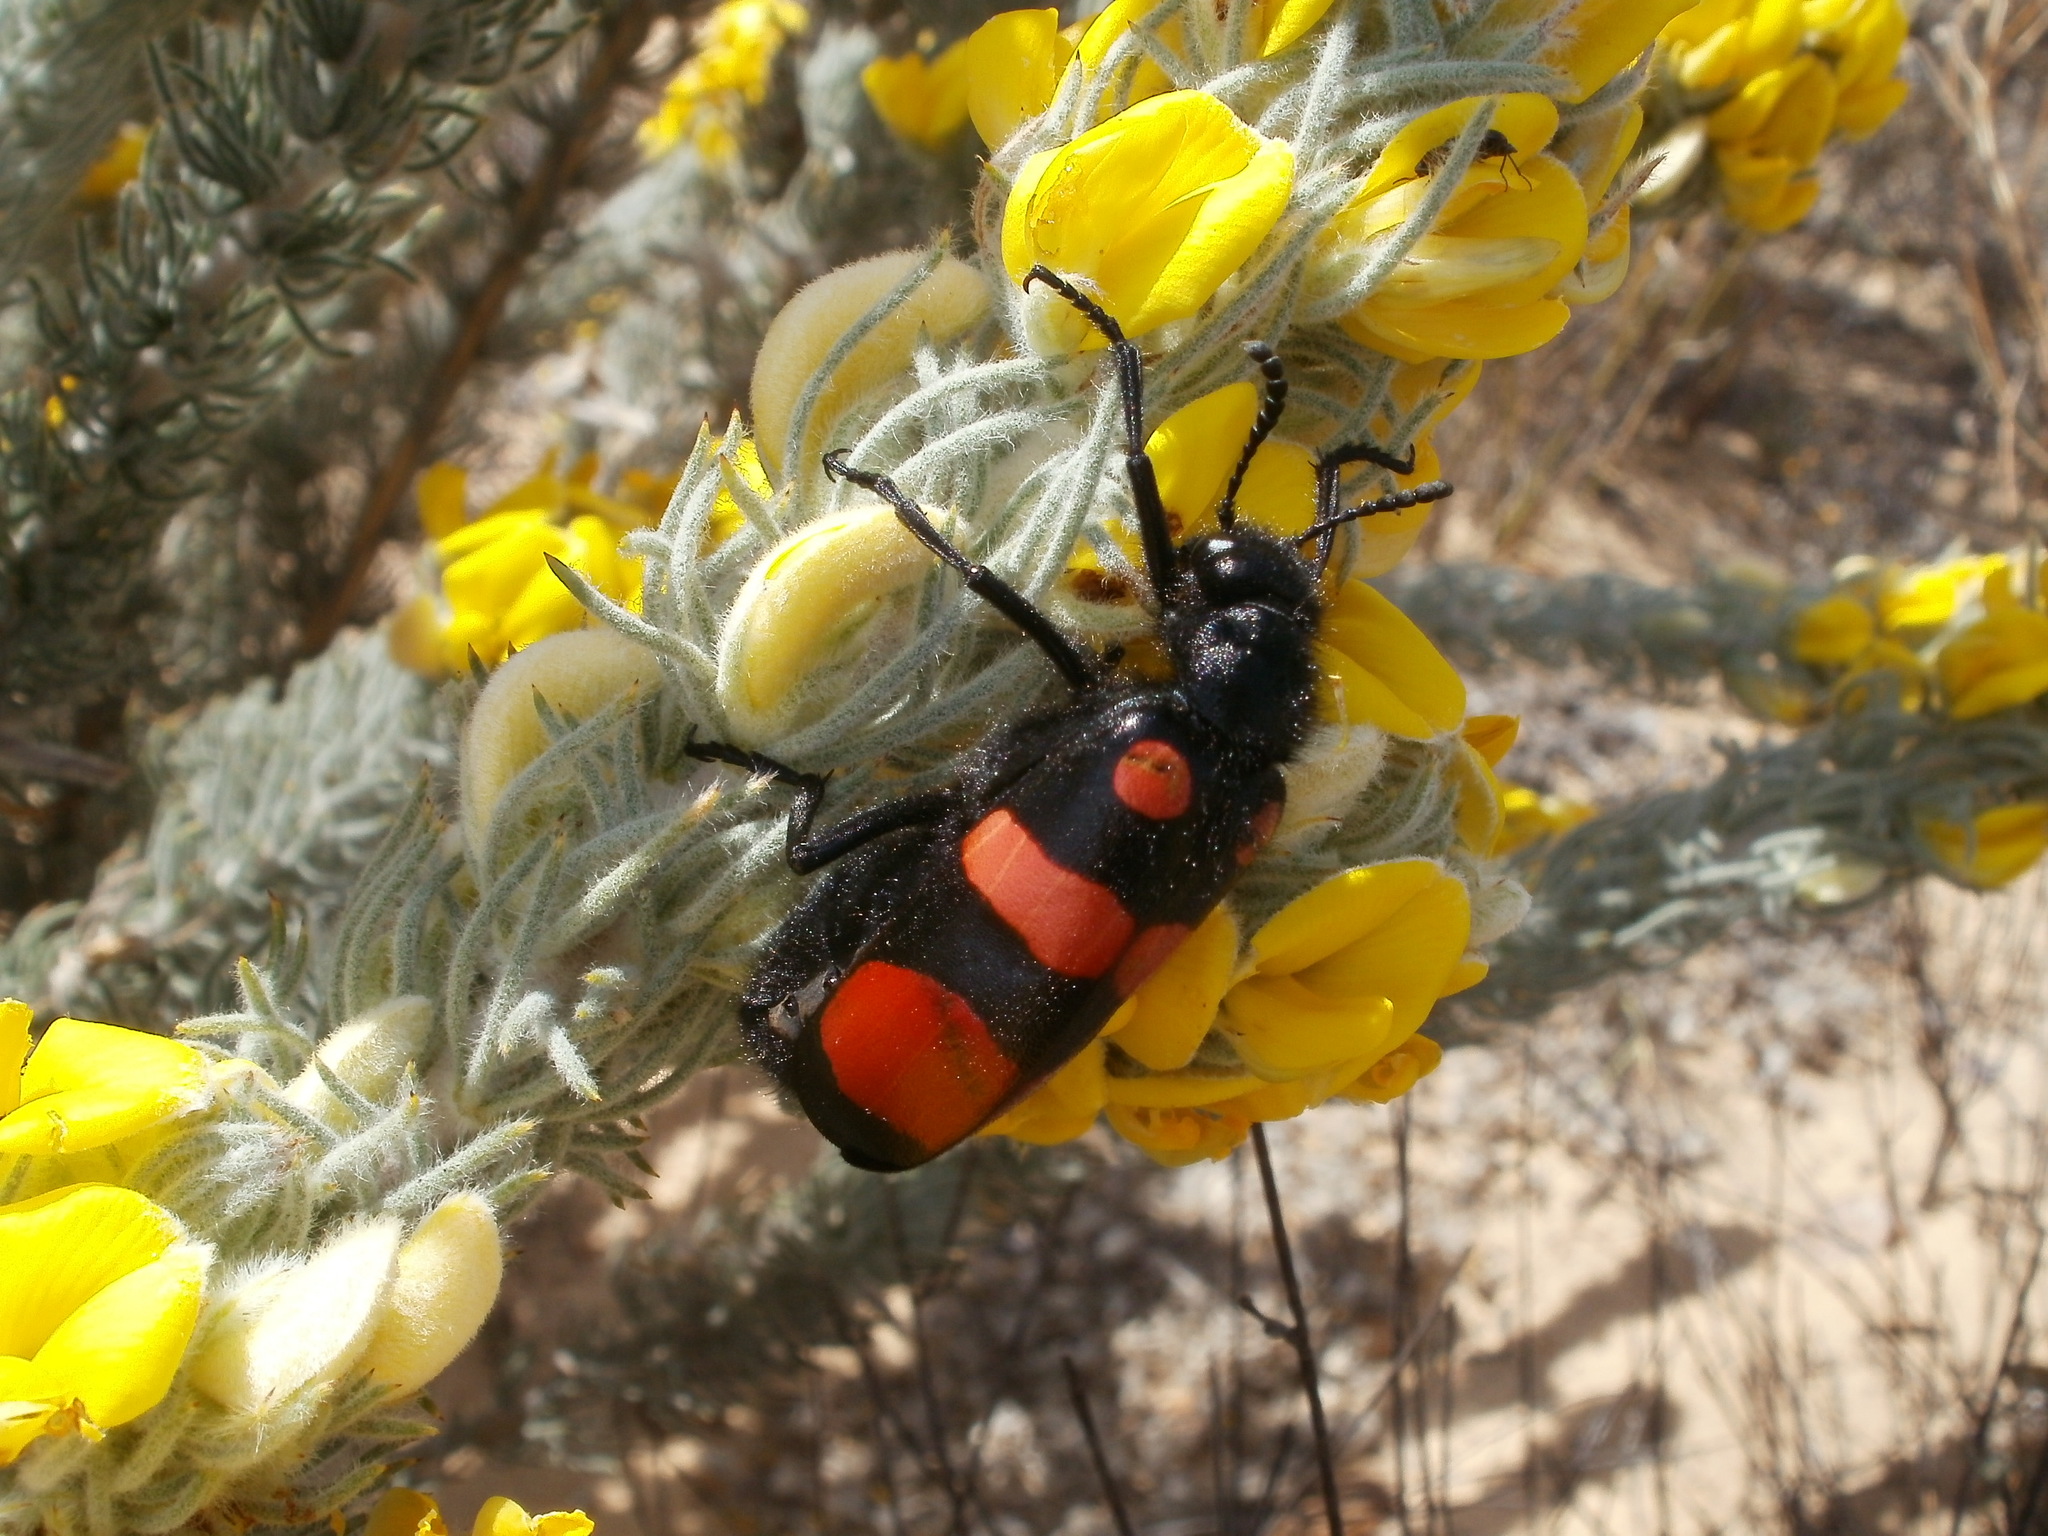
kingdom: Animalia
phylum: Arthropoda
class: Insecta
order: Coleoptera
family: Meloidae
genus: Hycleus
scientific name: Hycleus lavaterae
